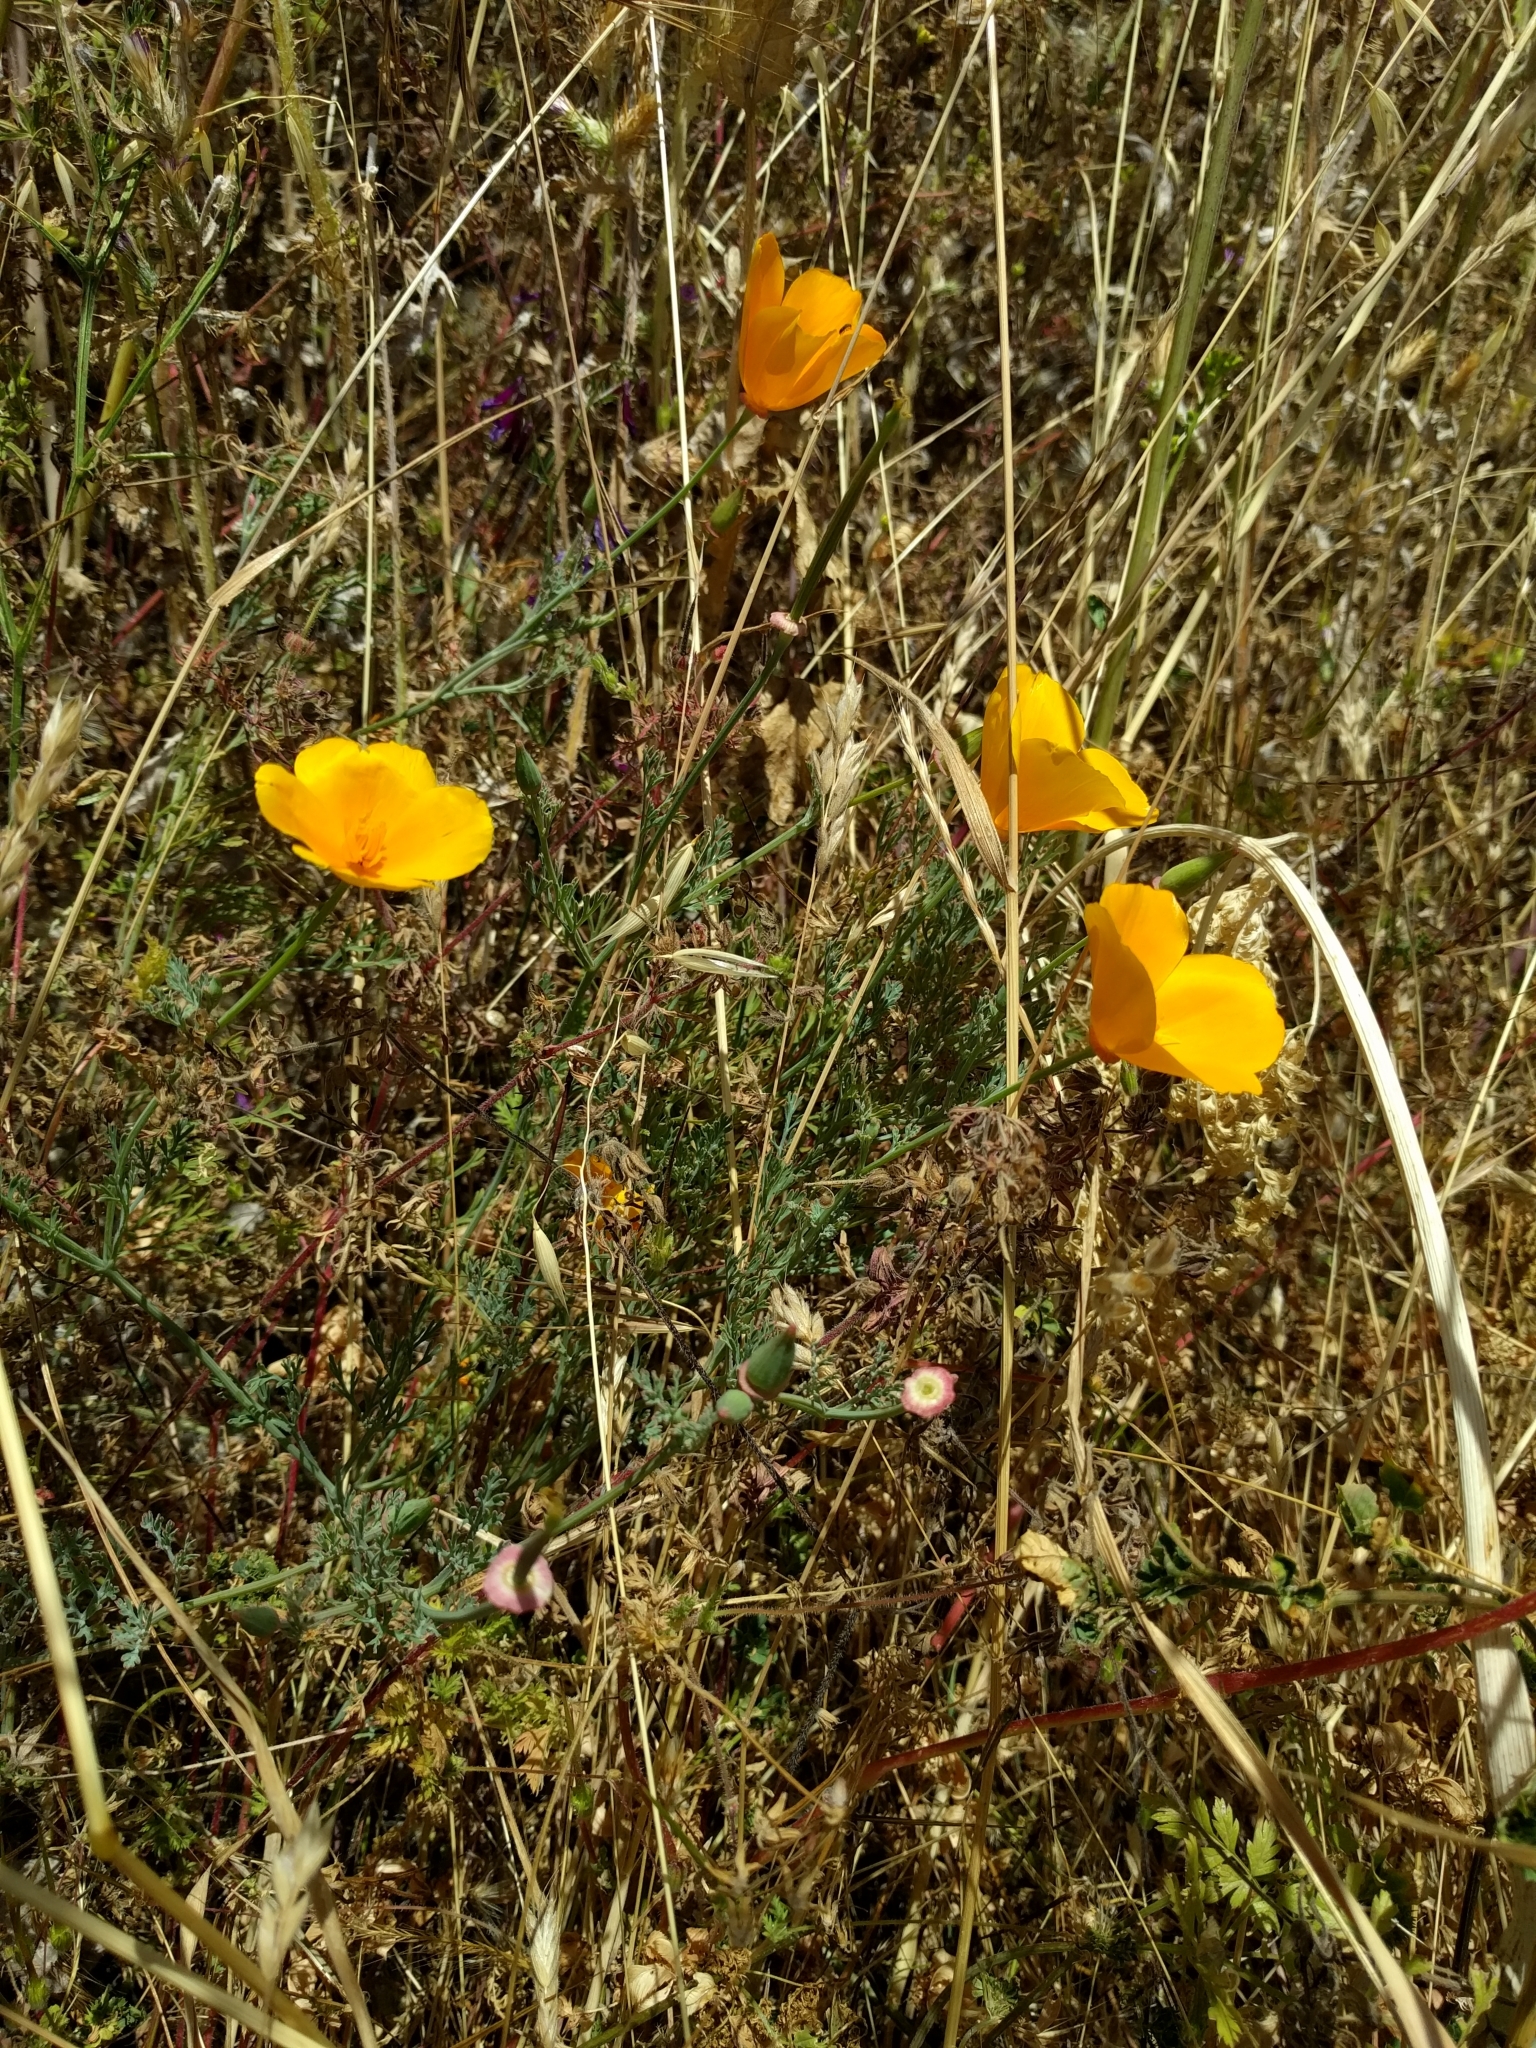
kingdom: Plantae
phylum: Tracheophyta
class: Magnoliopsida
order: Ranunculales
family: Papaveraceae
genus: Eschscholzia
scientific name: Eschscholzia californica
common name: California poppy
